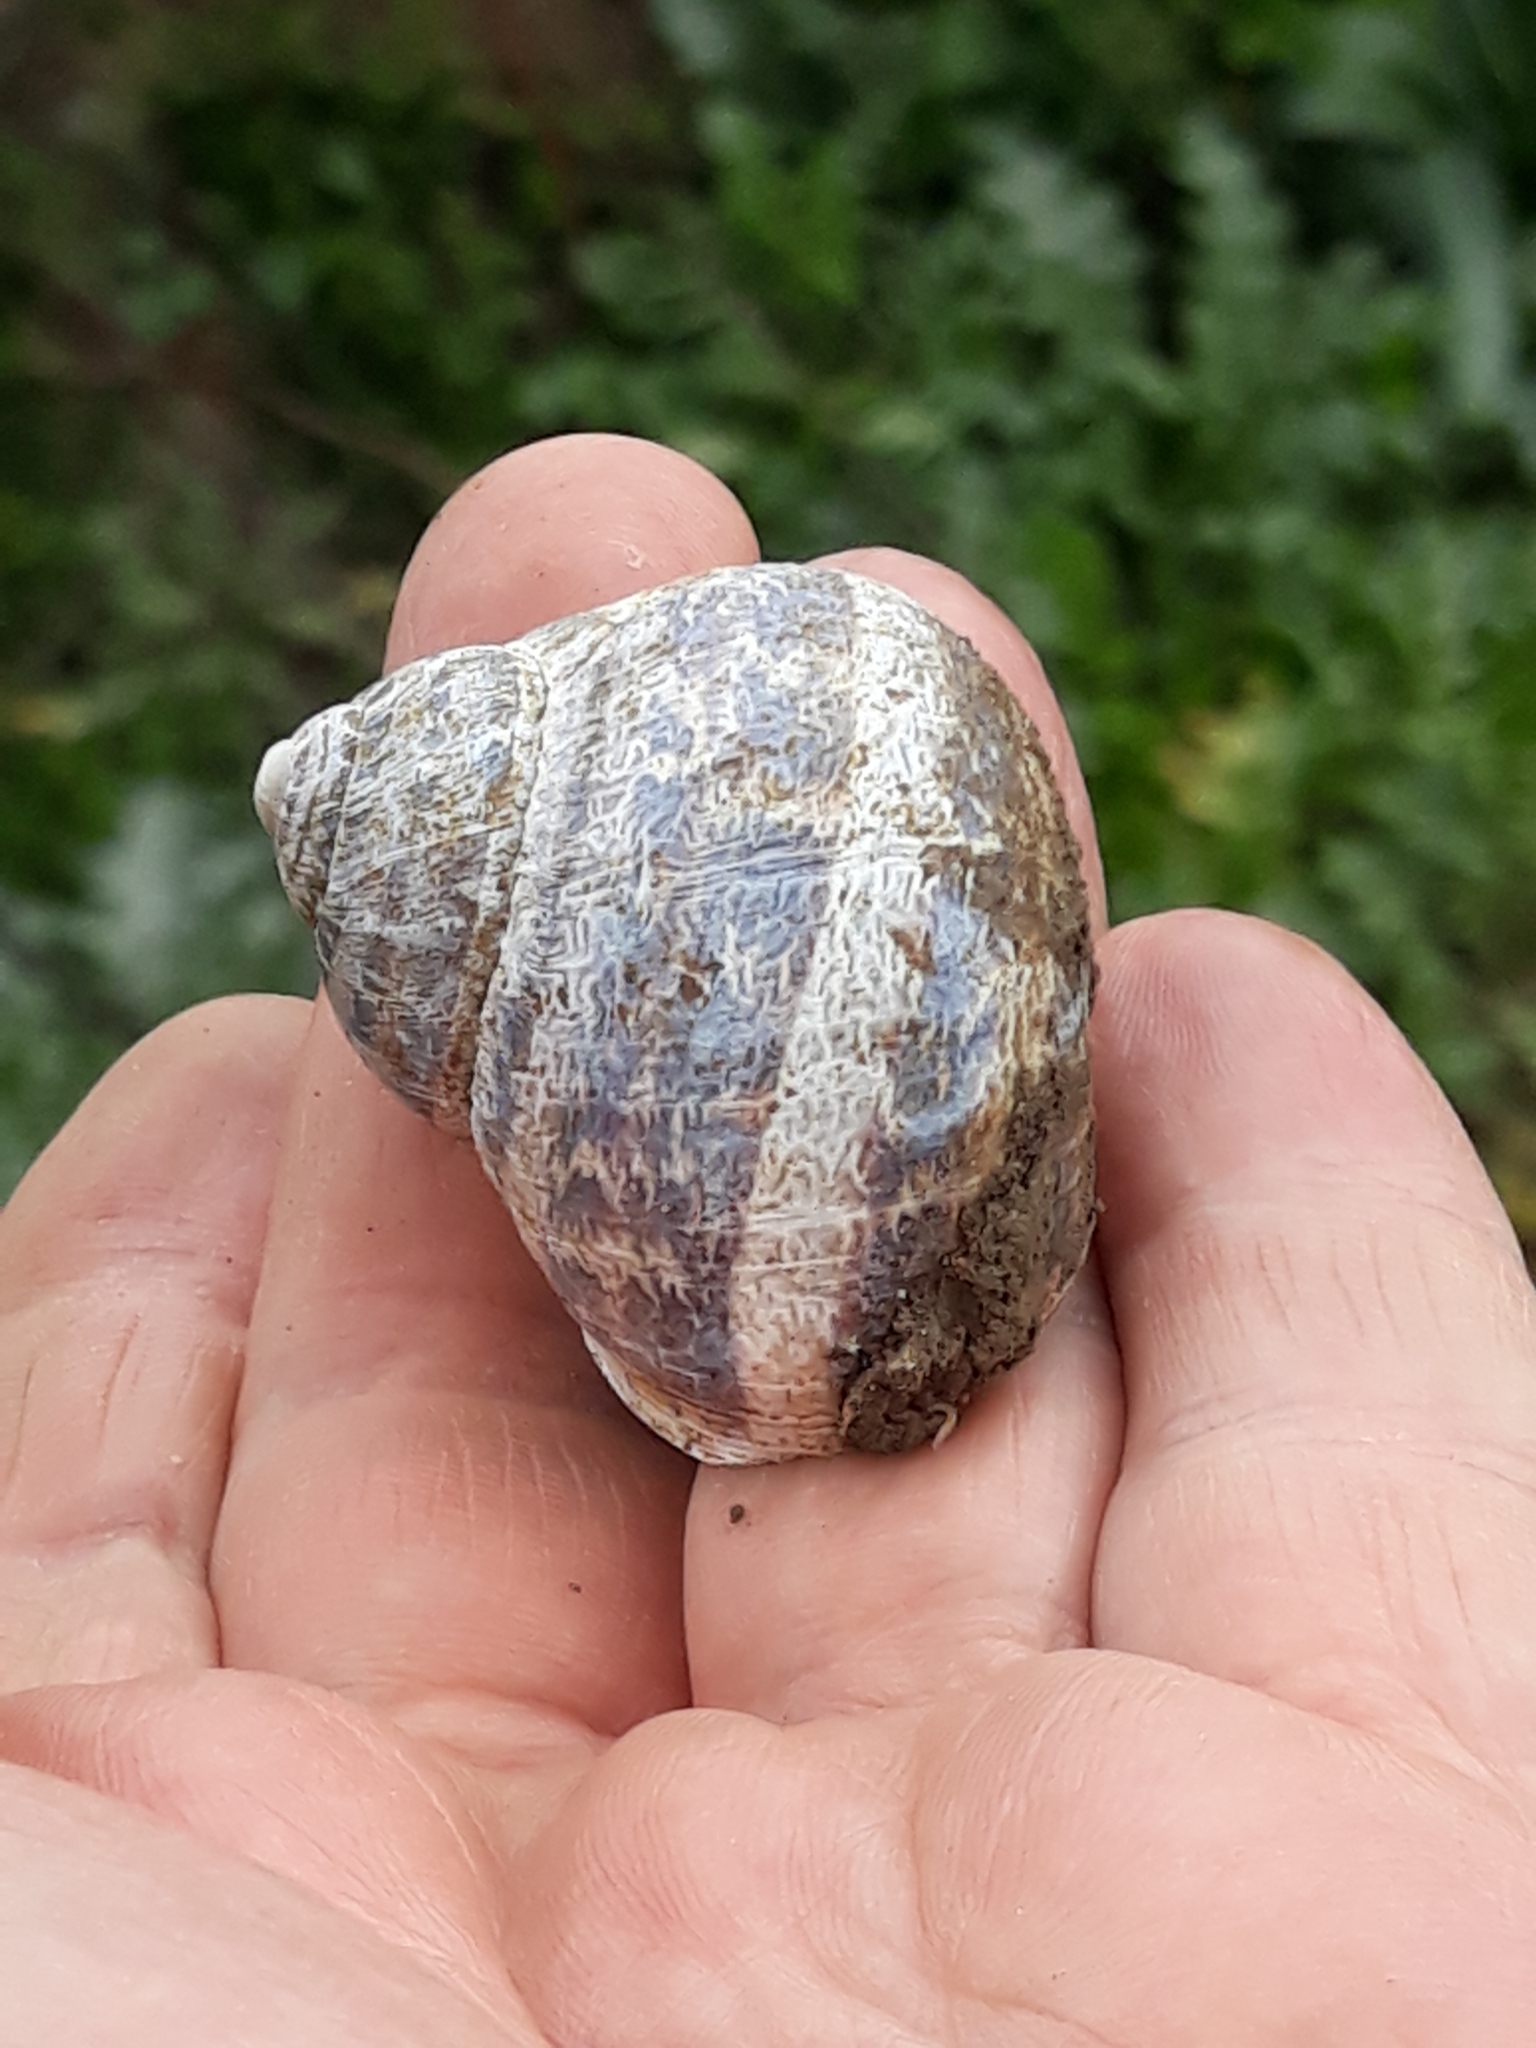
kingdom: Animalia
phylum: Mollusca
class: Gastropoda
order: Stylommatophora
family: Helicidae
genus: Cornu
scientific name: Cornu aspersum
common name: Brown garden snail
